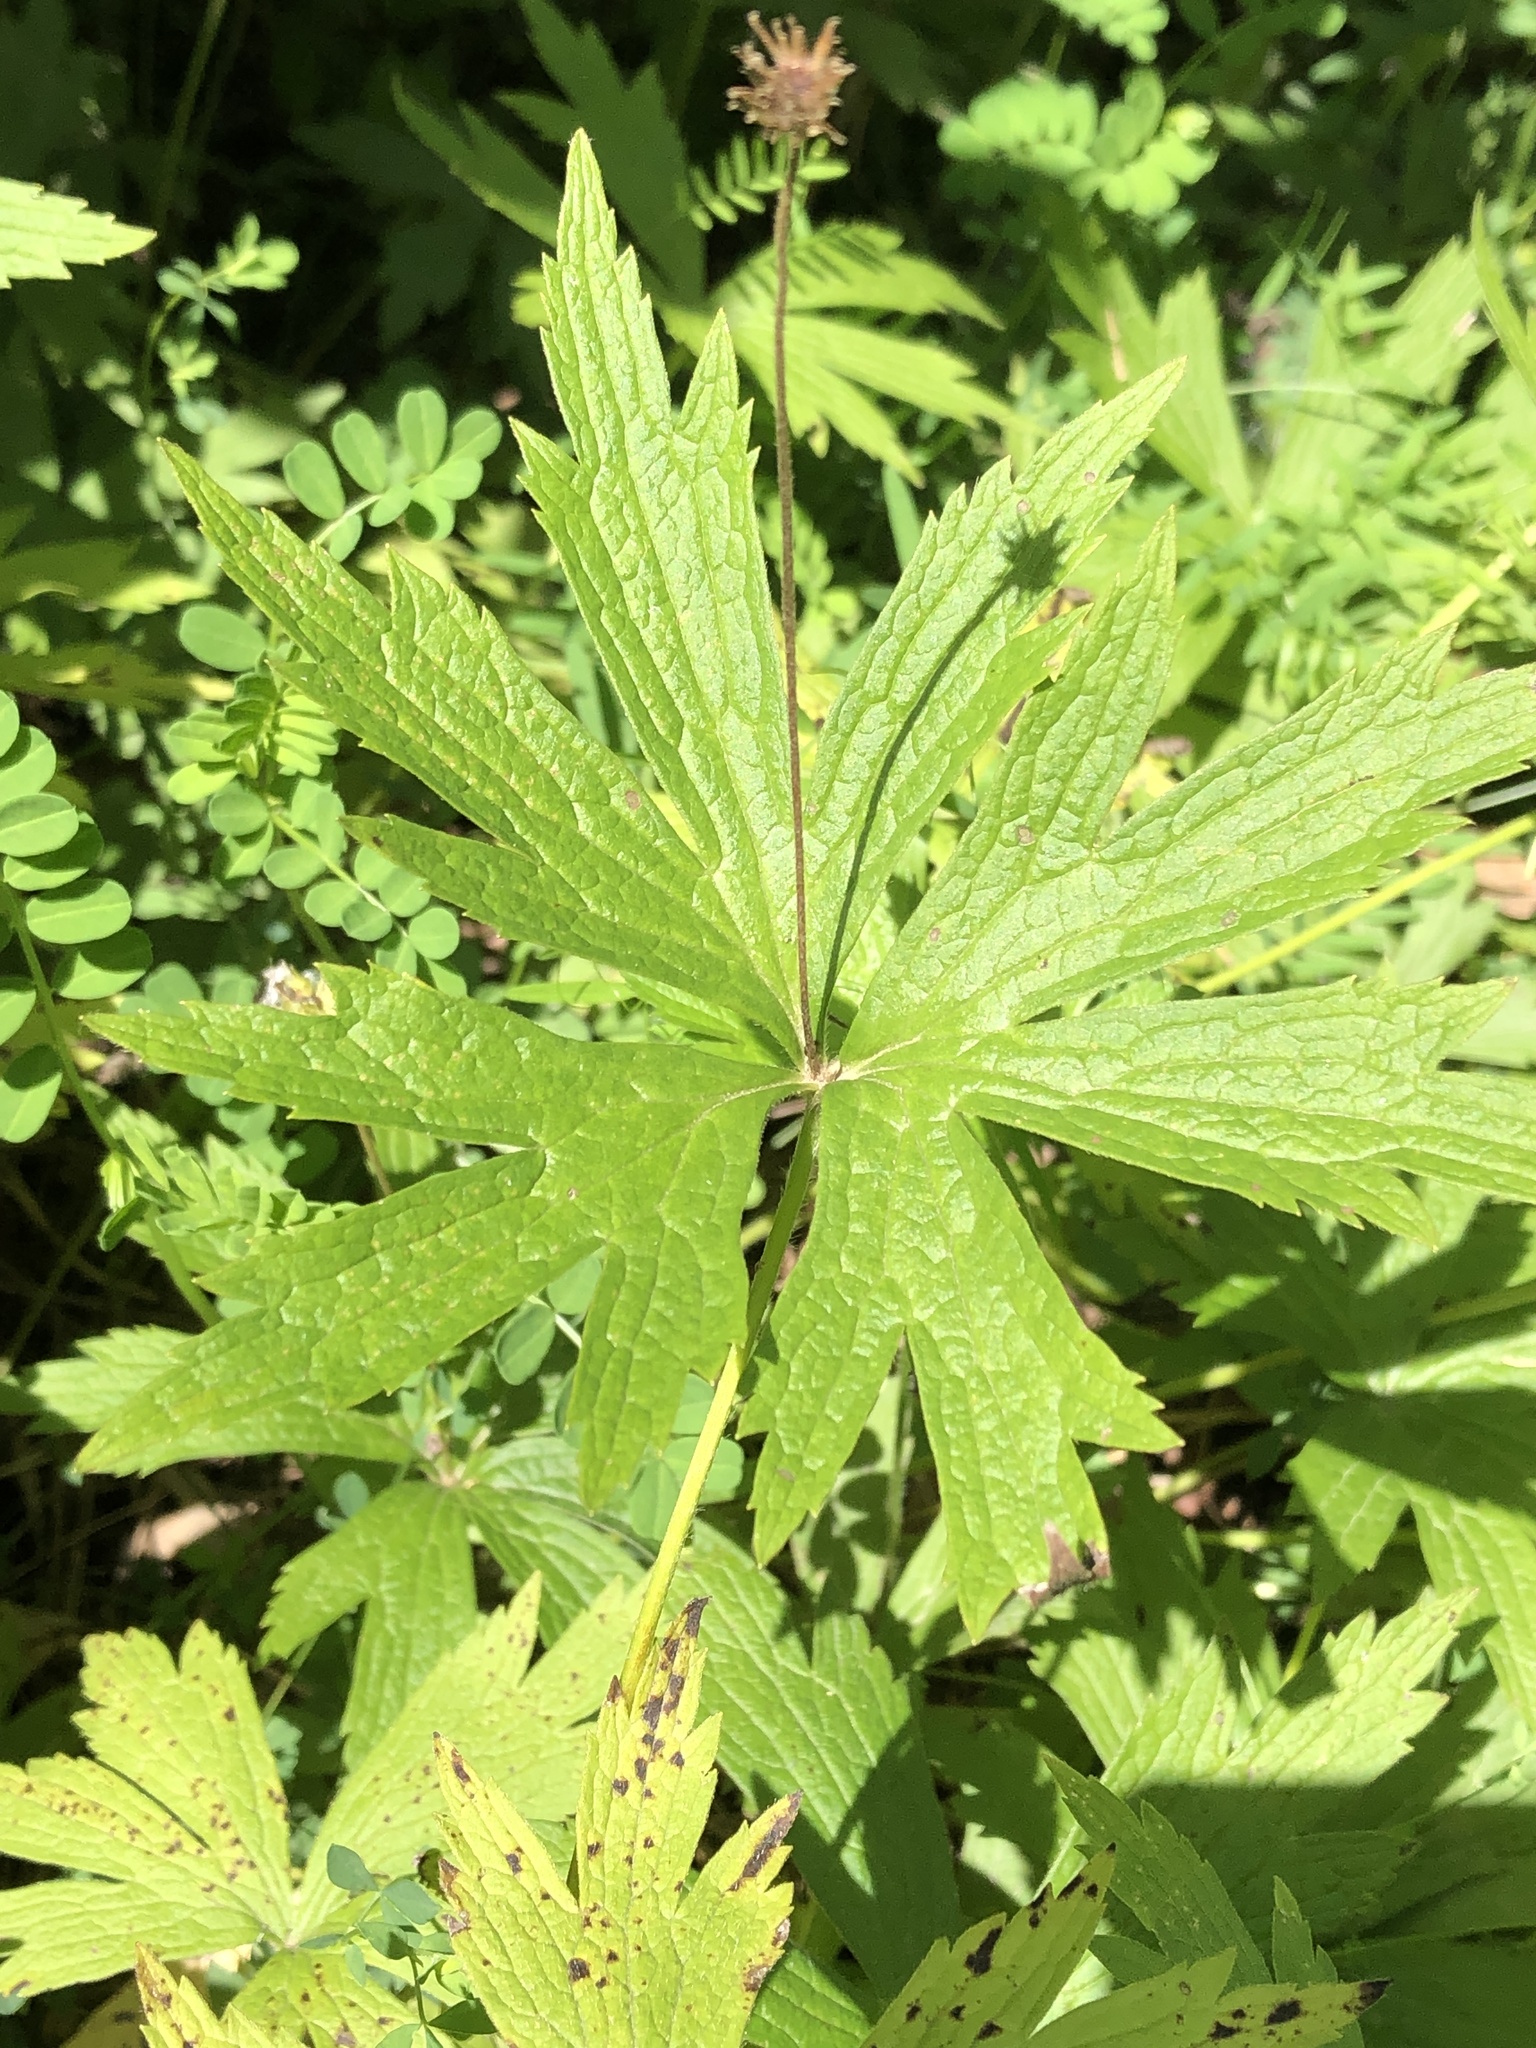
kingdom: Plantae
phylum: Tracheophyta
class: Magnoliopsida
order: Ranunculales
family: Ranunculaceae
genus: Anemonastrum
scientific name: Anemonastrum canadense
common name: Canada anemone
